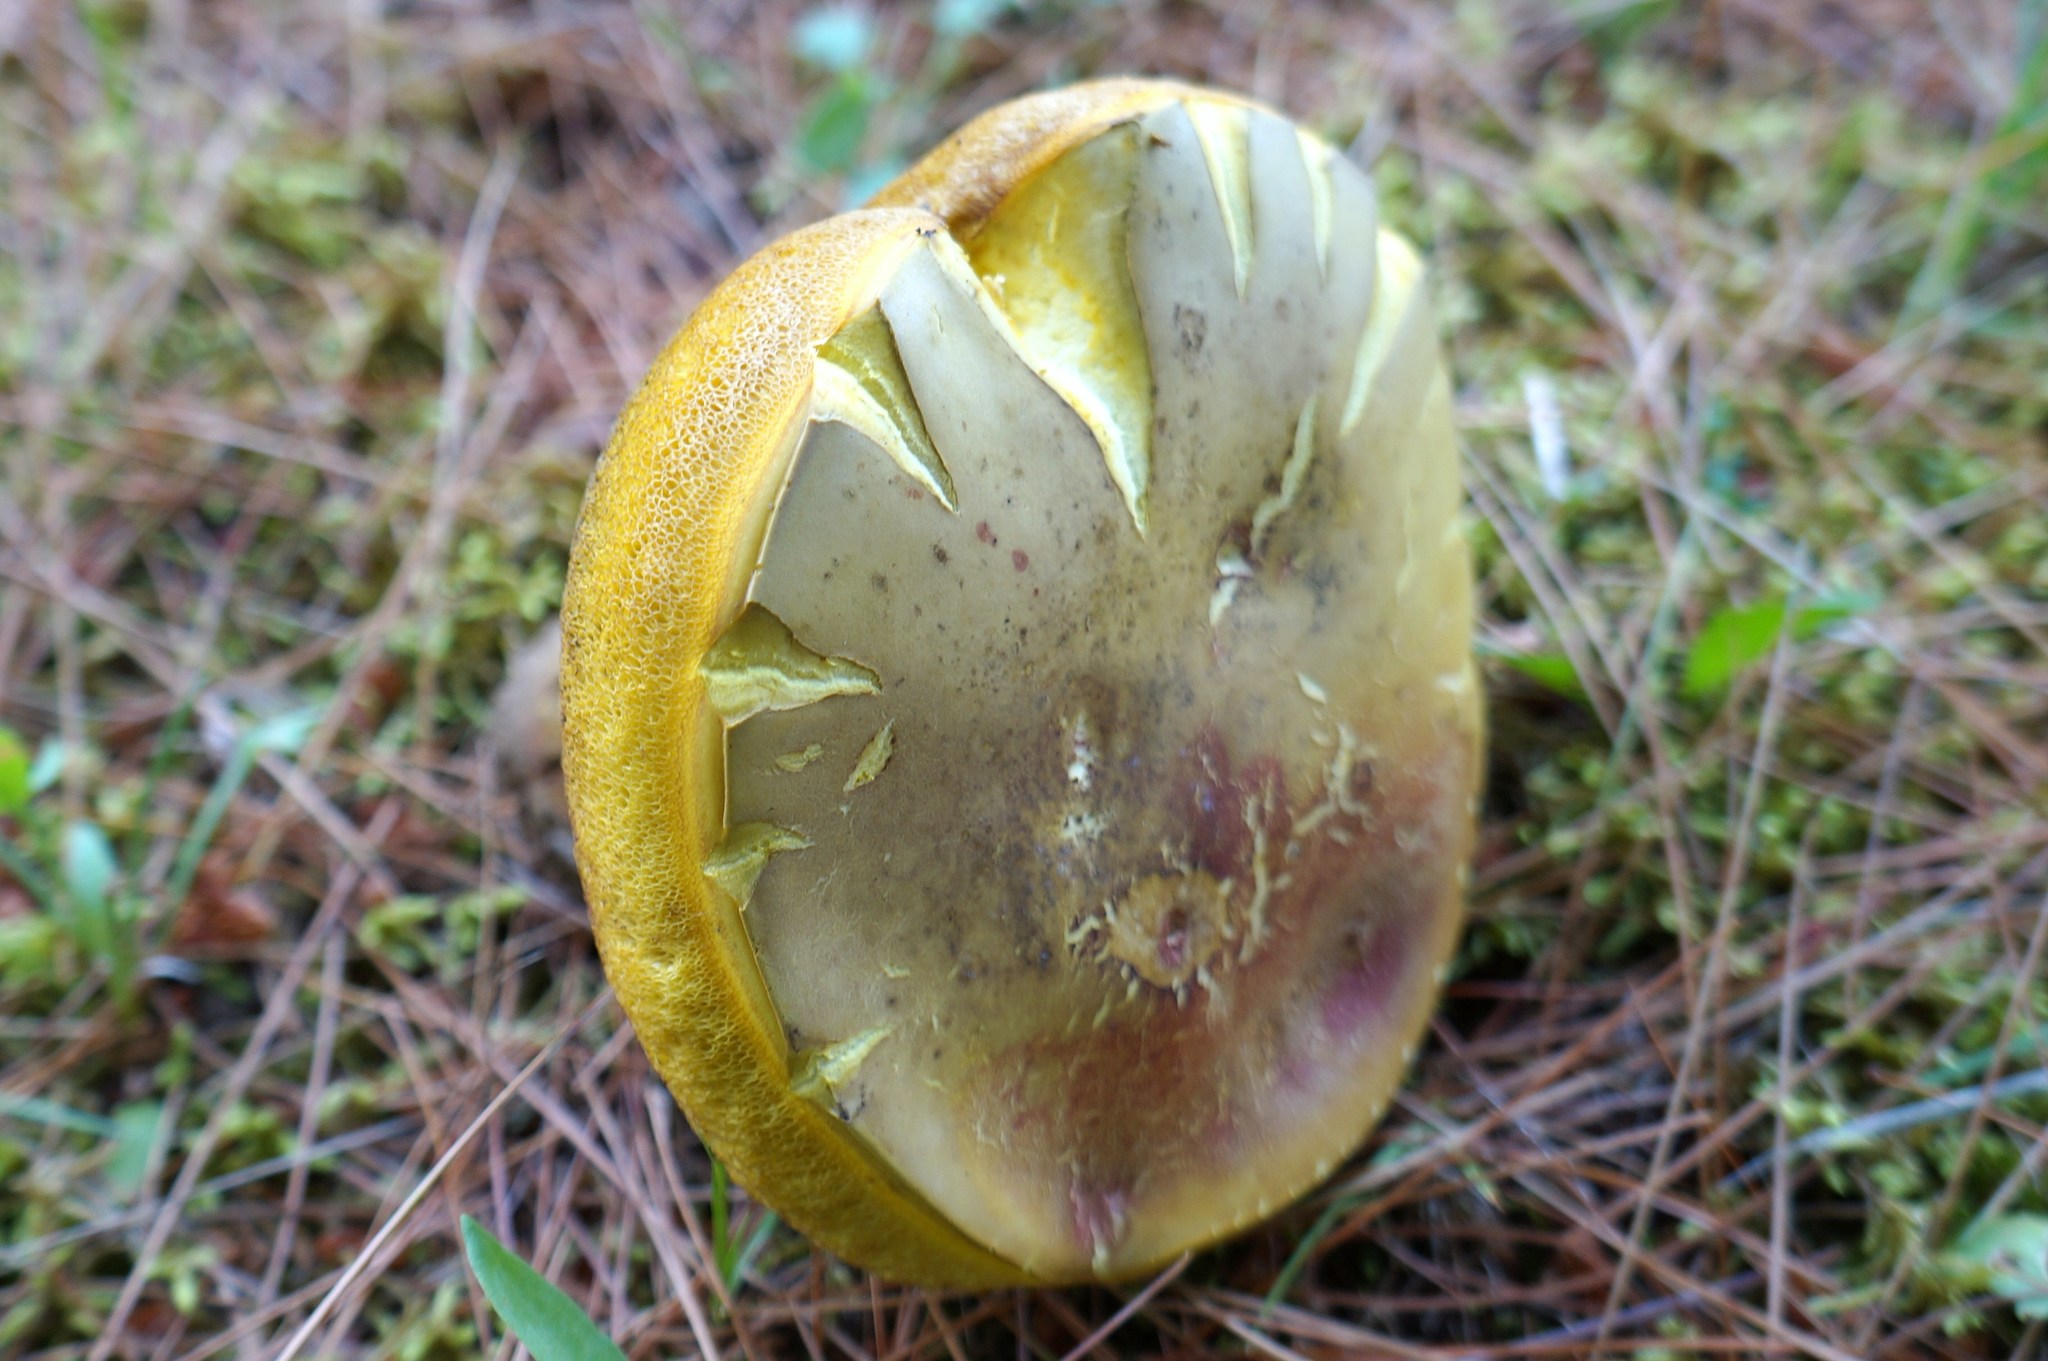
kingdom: Fungi
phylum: Basidiomycota
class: Agaricomycetes
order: Boletales
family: Boletaceae
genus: Baorangia
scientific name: Baorangia bicolor
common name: Two-colored bolete
